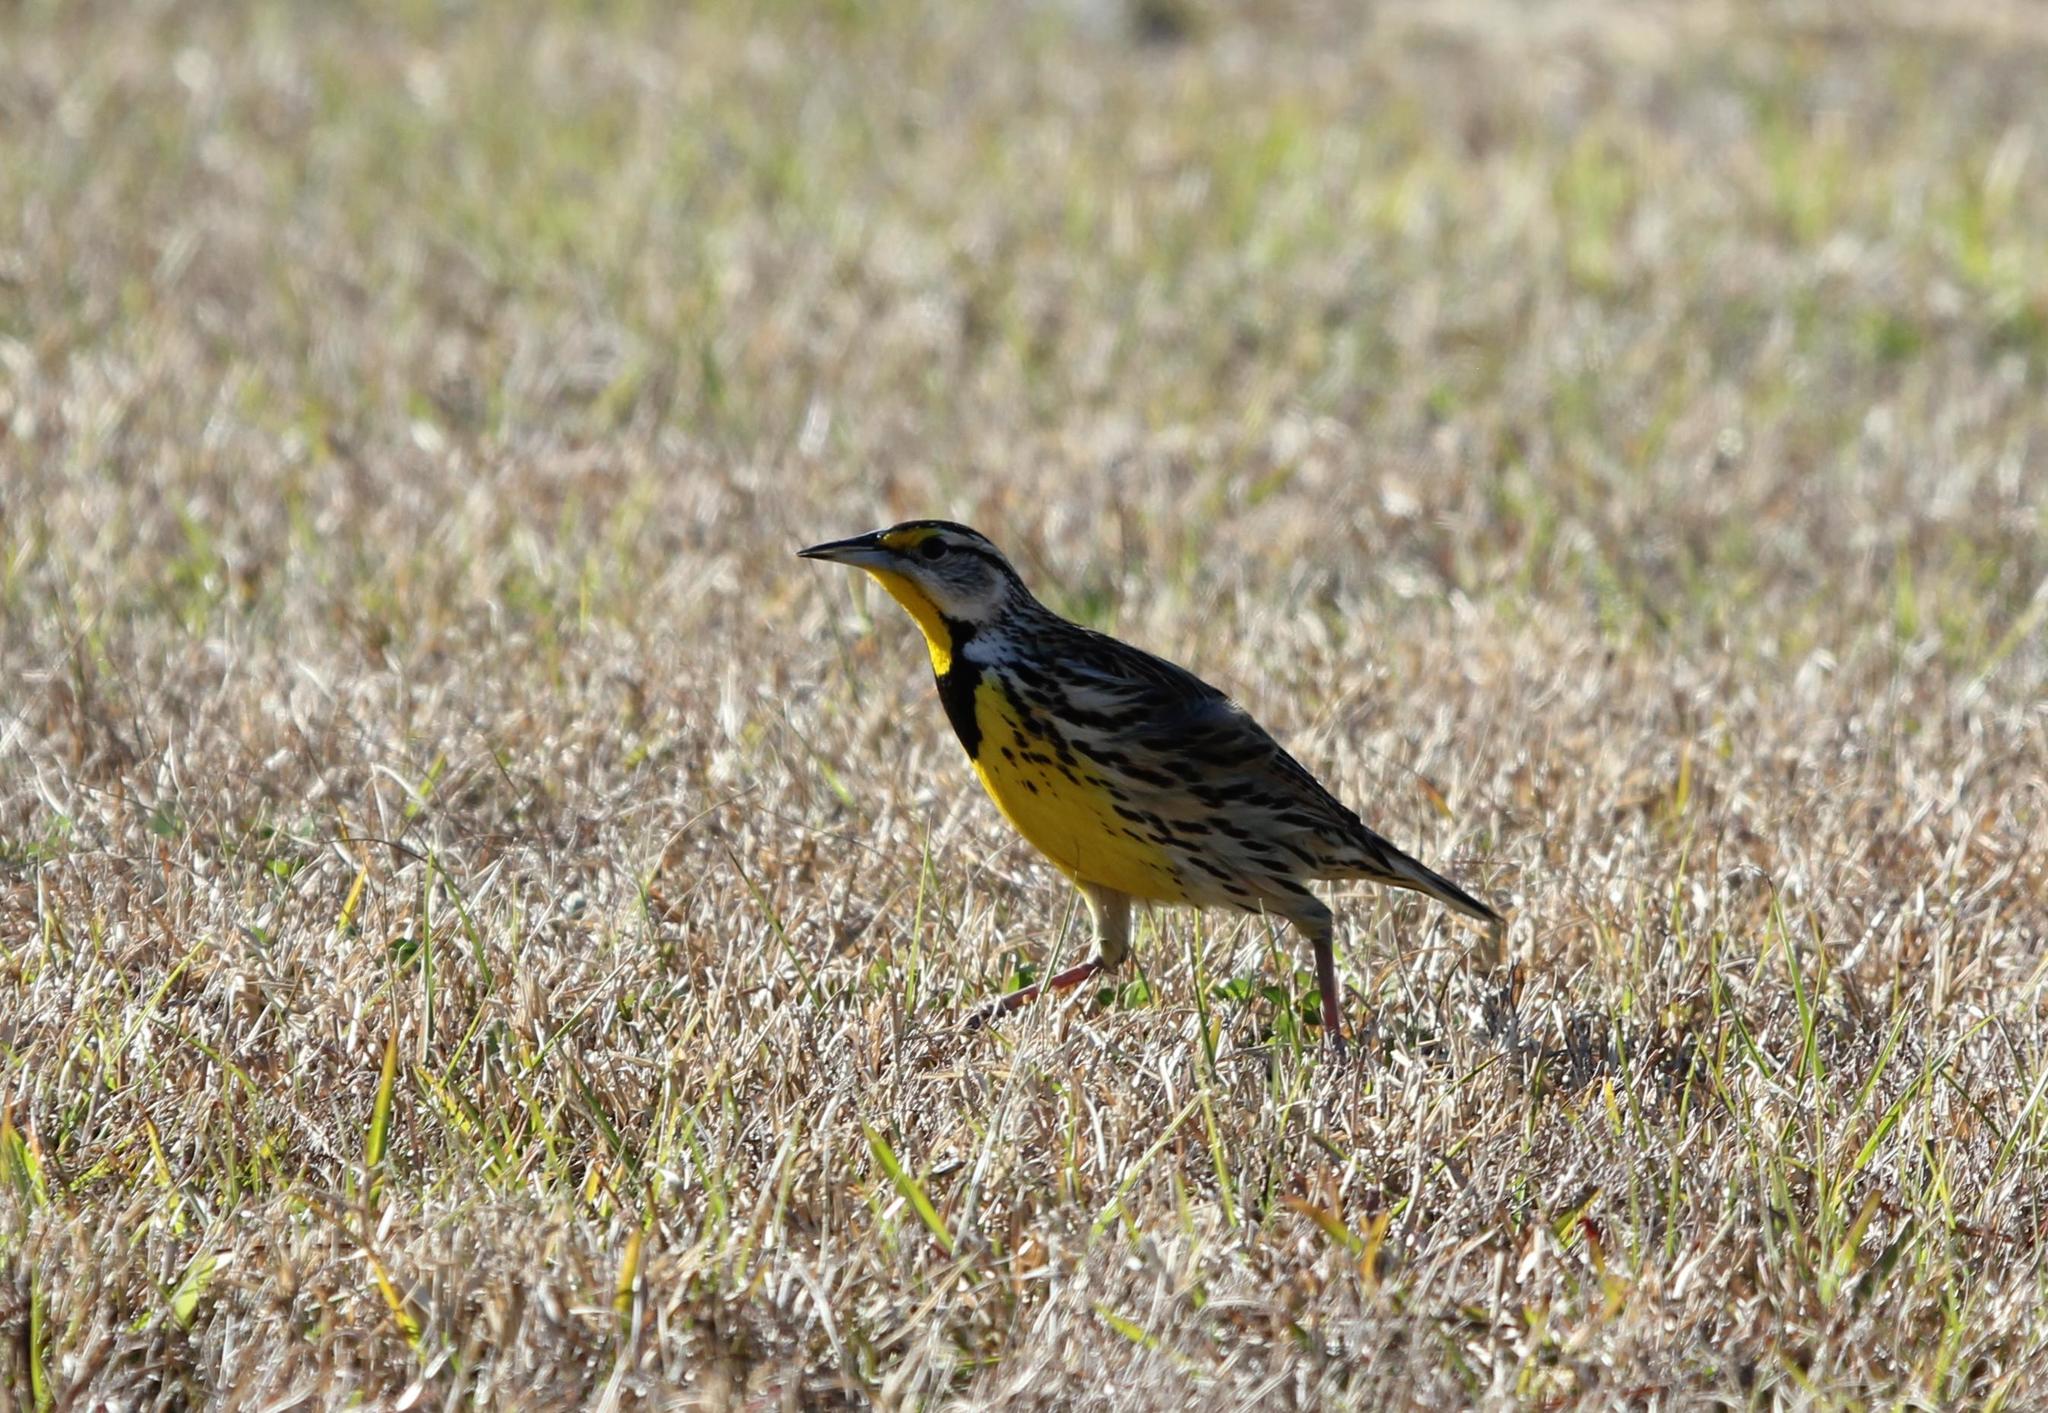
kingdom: Animalia
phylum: Chordata
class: Aves
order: Passeriformes
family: Icteridae
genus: Sturnella
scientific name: Sturnella magna
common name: Eastern meadowlark
